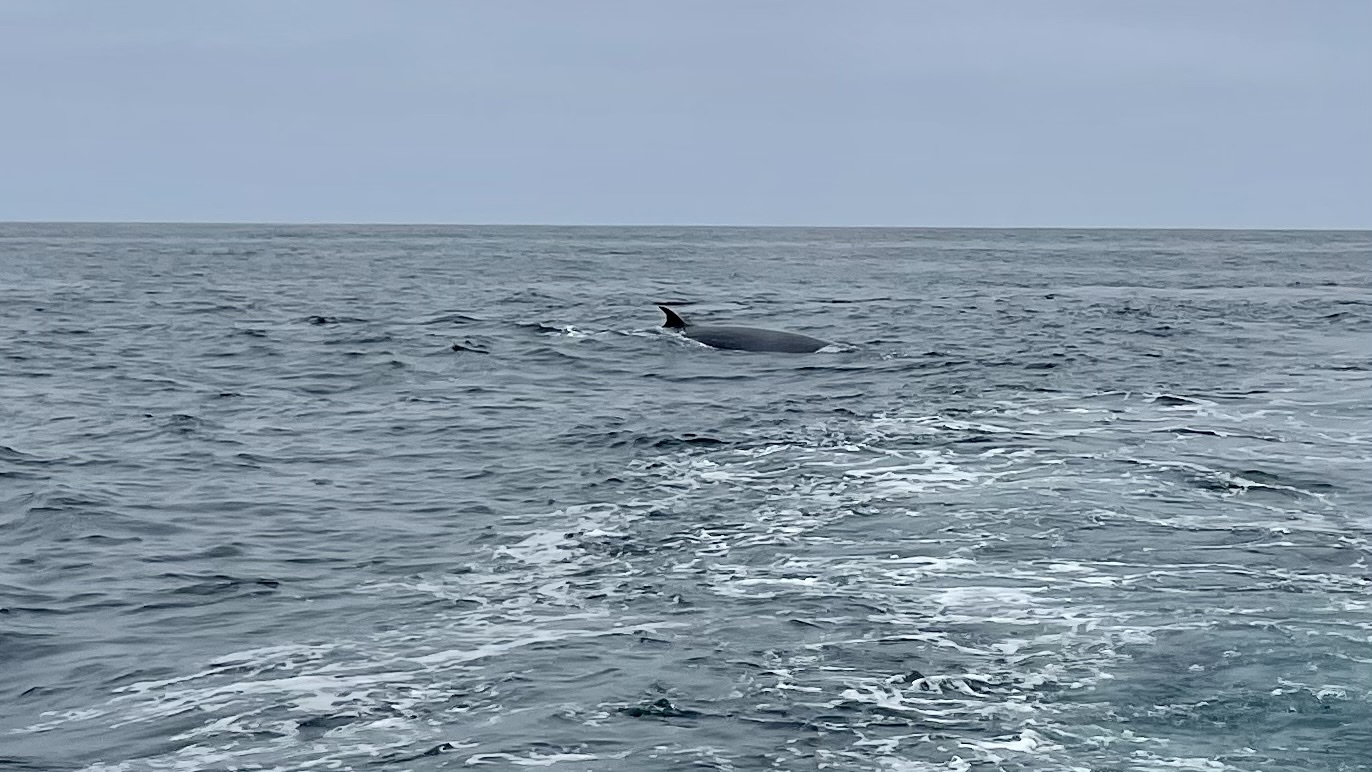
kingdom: Animalia
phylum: Chordata
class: Mammalia
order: Cetacea
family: Balaenopteridae
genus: Balaenoptera
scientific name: Balaenoptera acutorostrata
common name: Common minke whale
